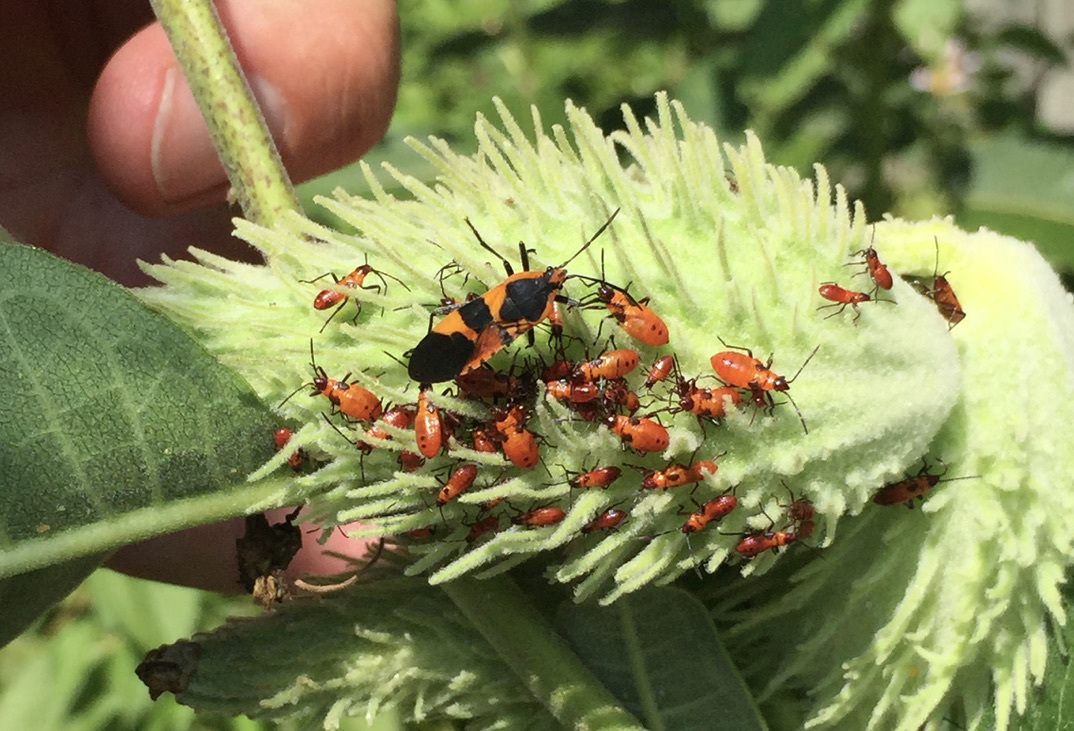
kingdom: Animalia
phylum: Arthropoda
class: Insecta
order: Hemiptera
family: Lygaeidae
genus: Oncopeltus
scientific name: Oncopeltus fasciatus
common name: Large milkweed bug
